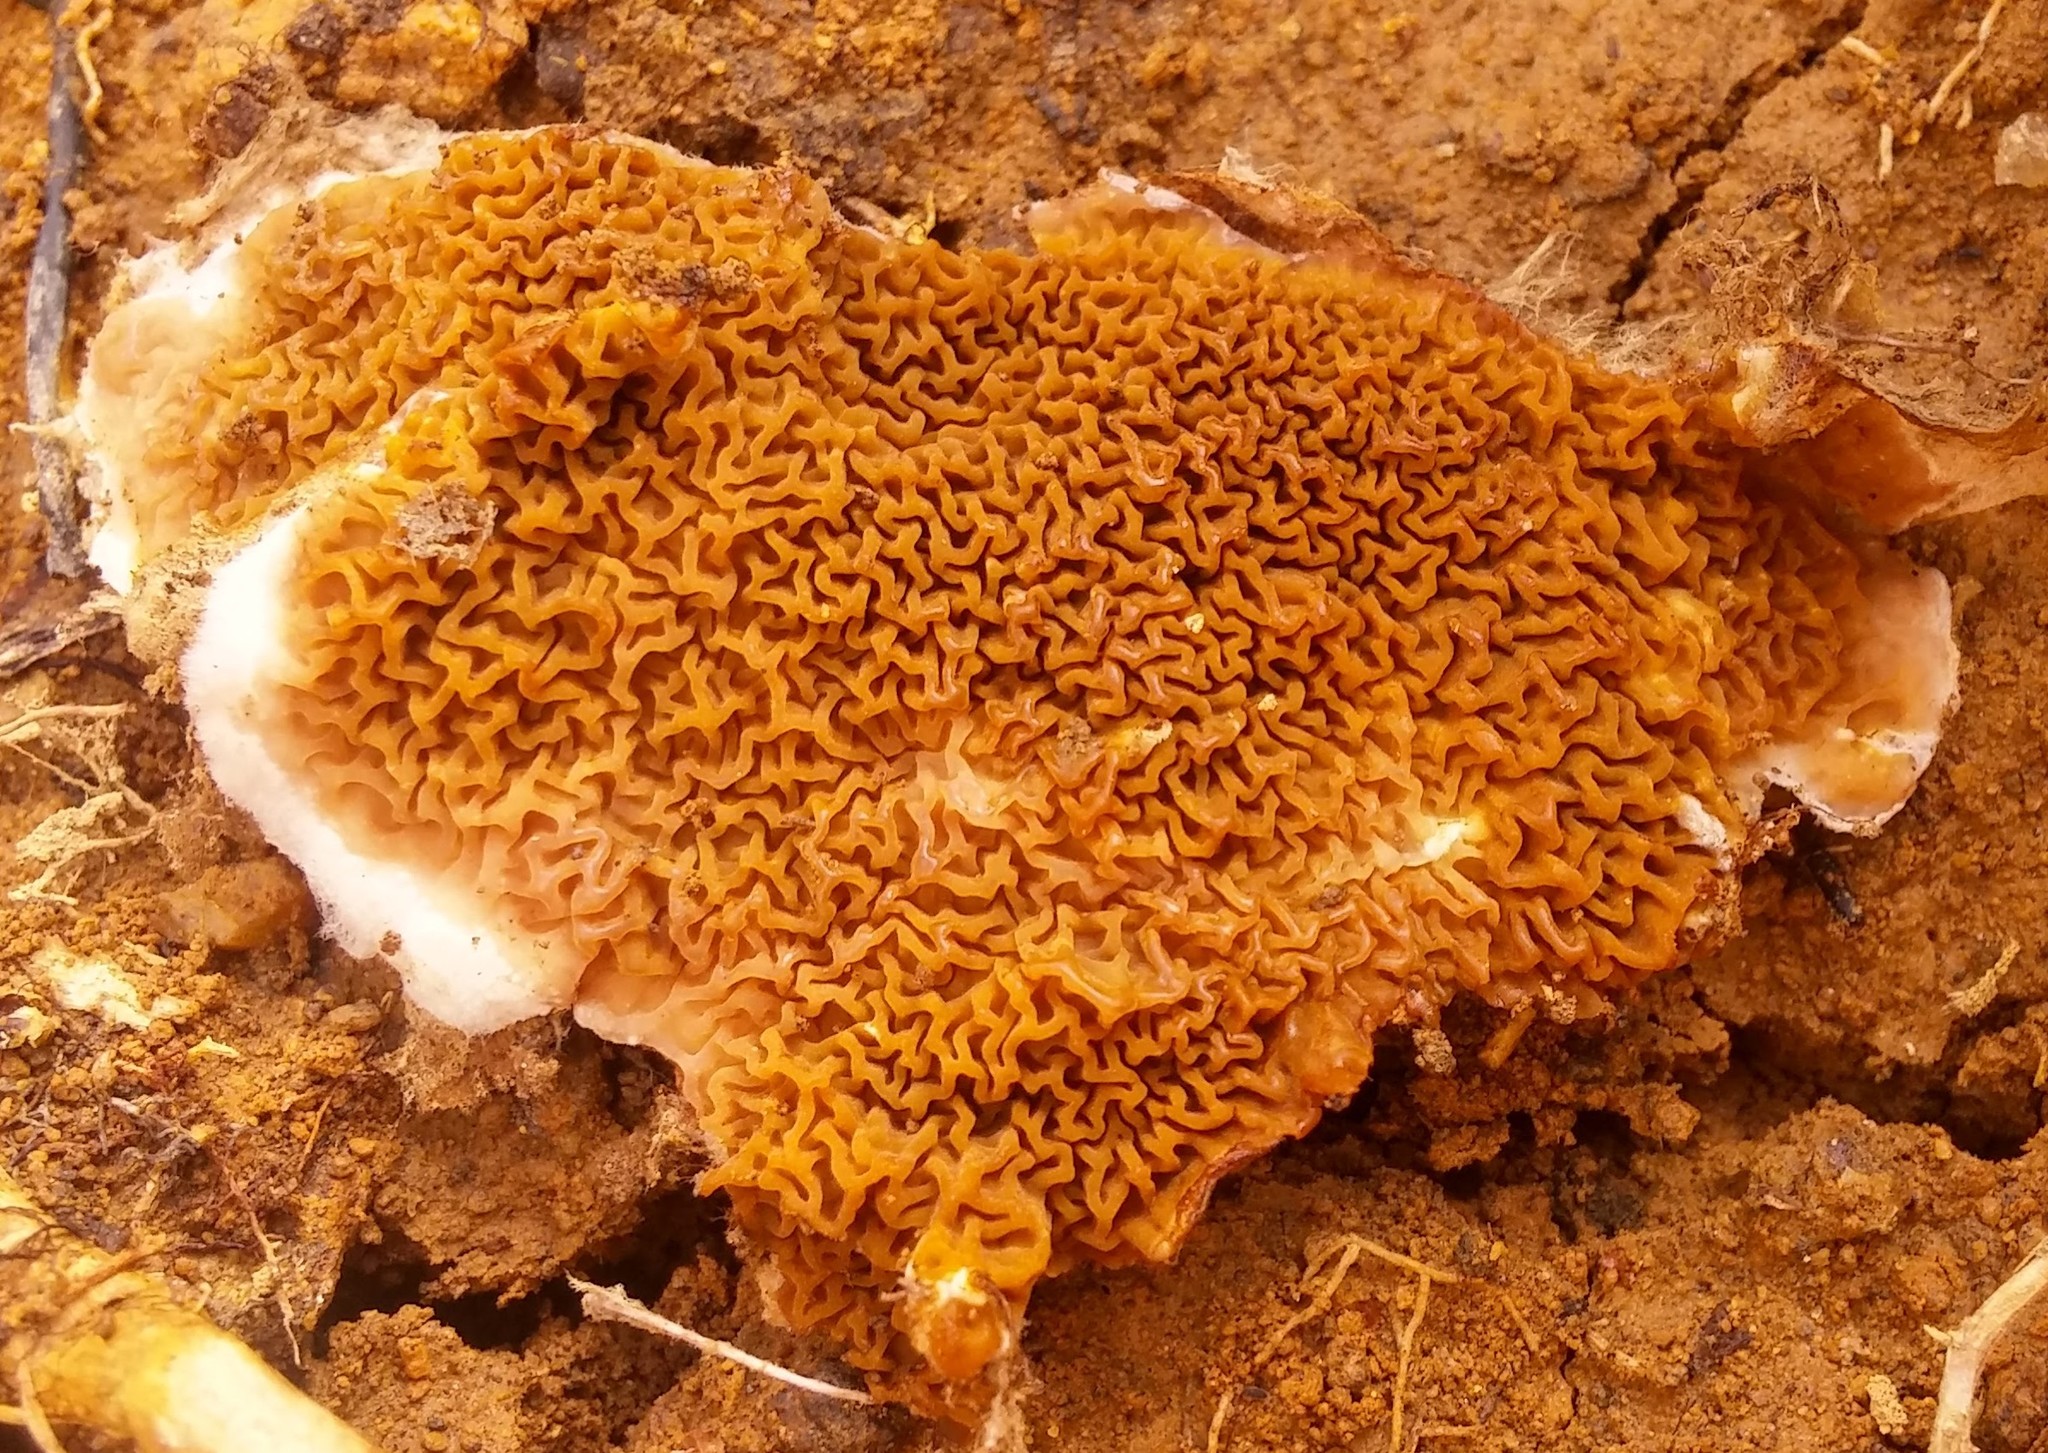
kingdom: Fungi
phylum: Basidiomycota
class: Agaricomycetes
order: Boletales
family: Serpulaceae
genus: Serpula
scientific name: Serpula himantioides
